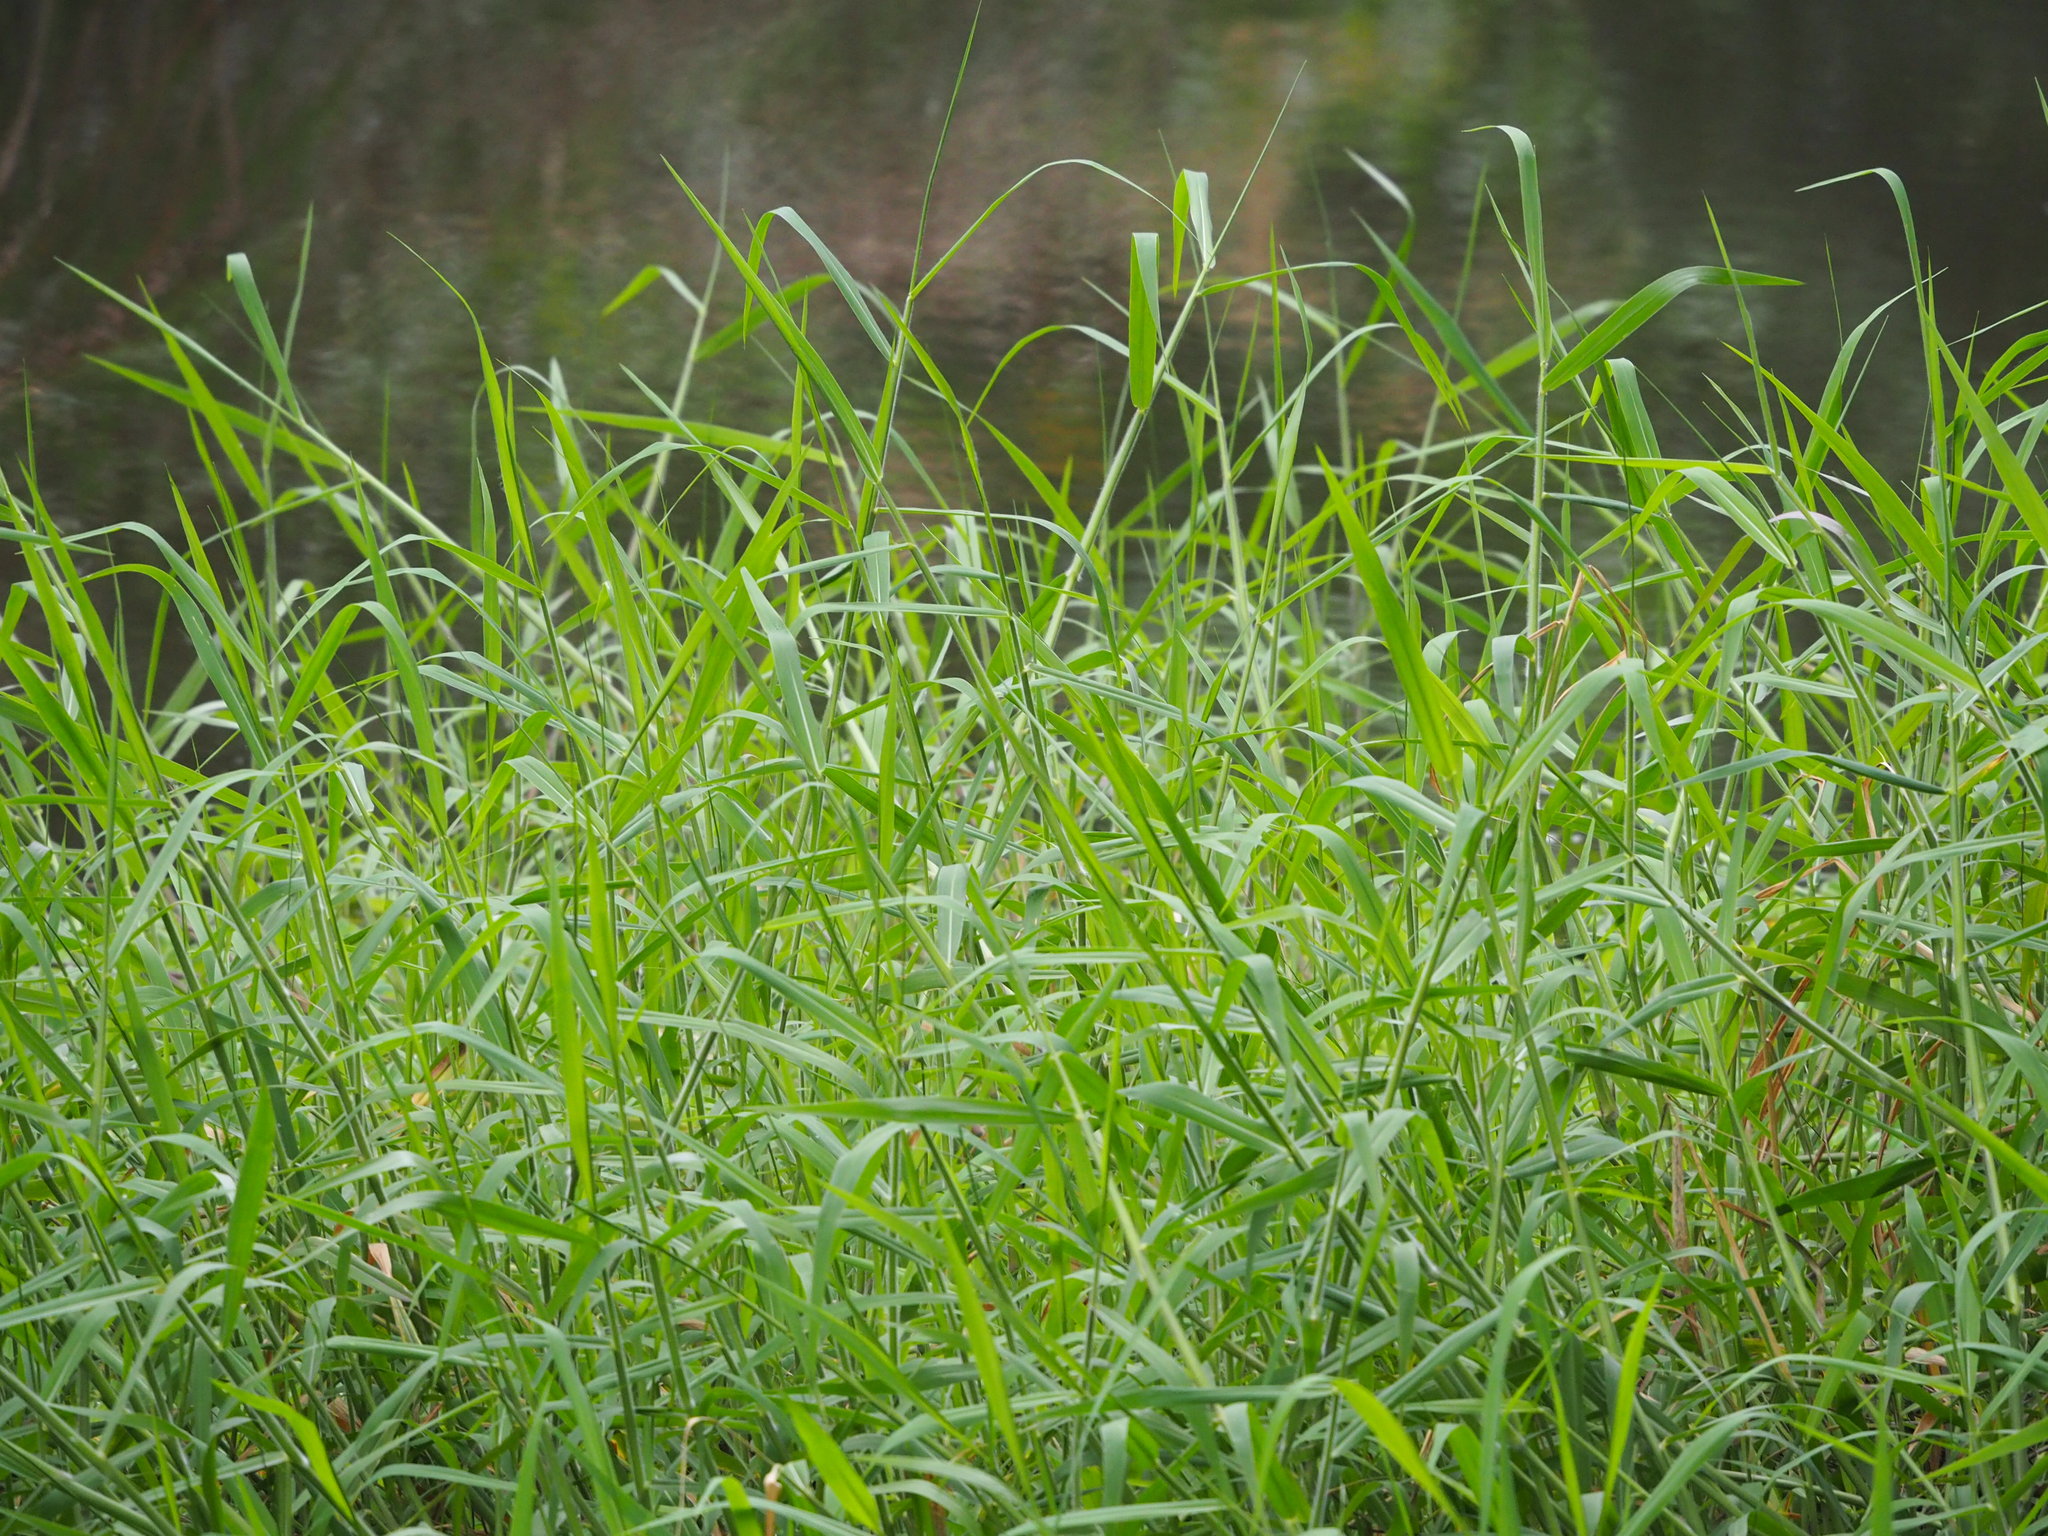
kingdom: Plantae
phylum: Tracheophyta
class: Liliopsida
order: Poales
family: Poaceae
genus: Urochloa
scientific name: Urochloa mutica
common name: Para grass
